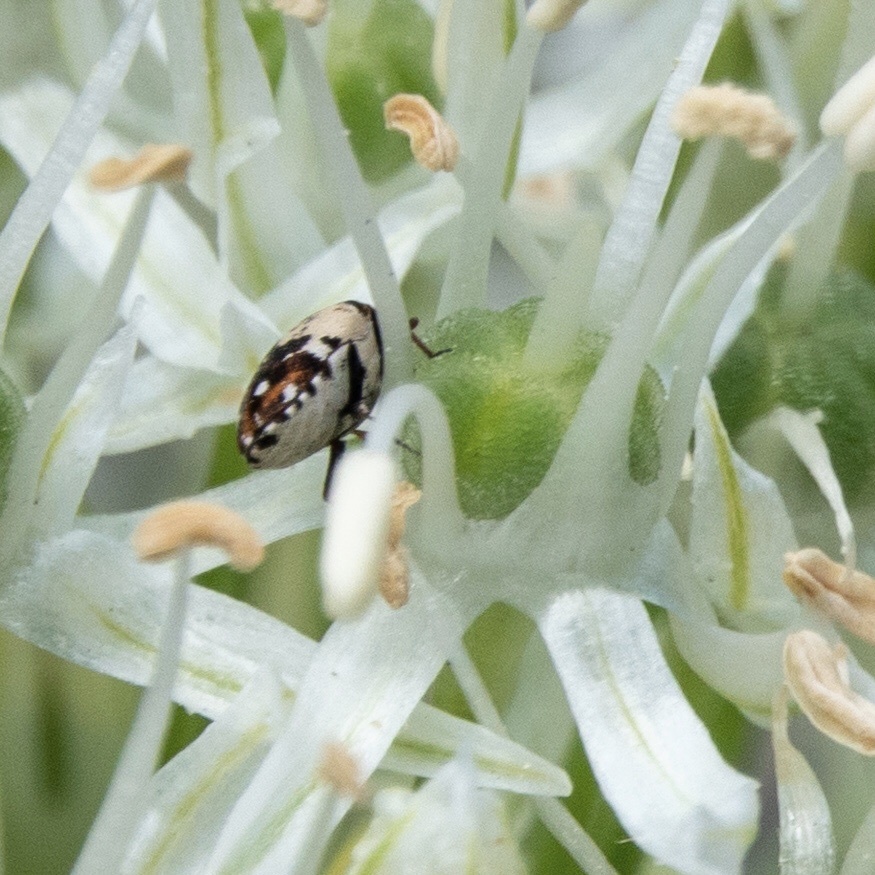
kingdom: Animalia
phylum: Arthropoda
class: Insecta
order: Coleoptera
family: Dermestidae
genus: Anthrenus
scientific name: Anthrenus isabellinus
